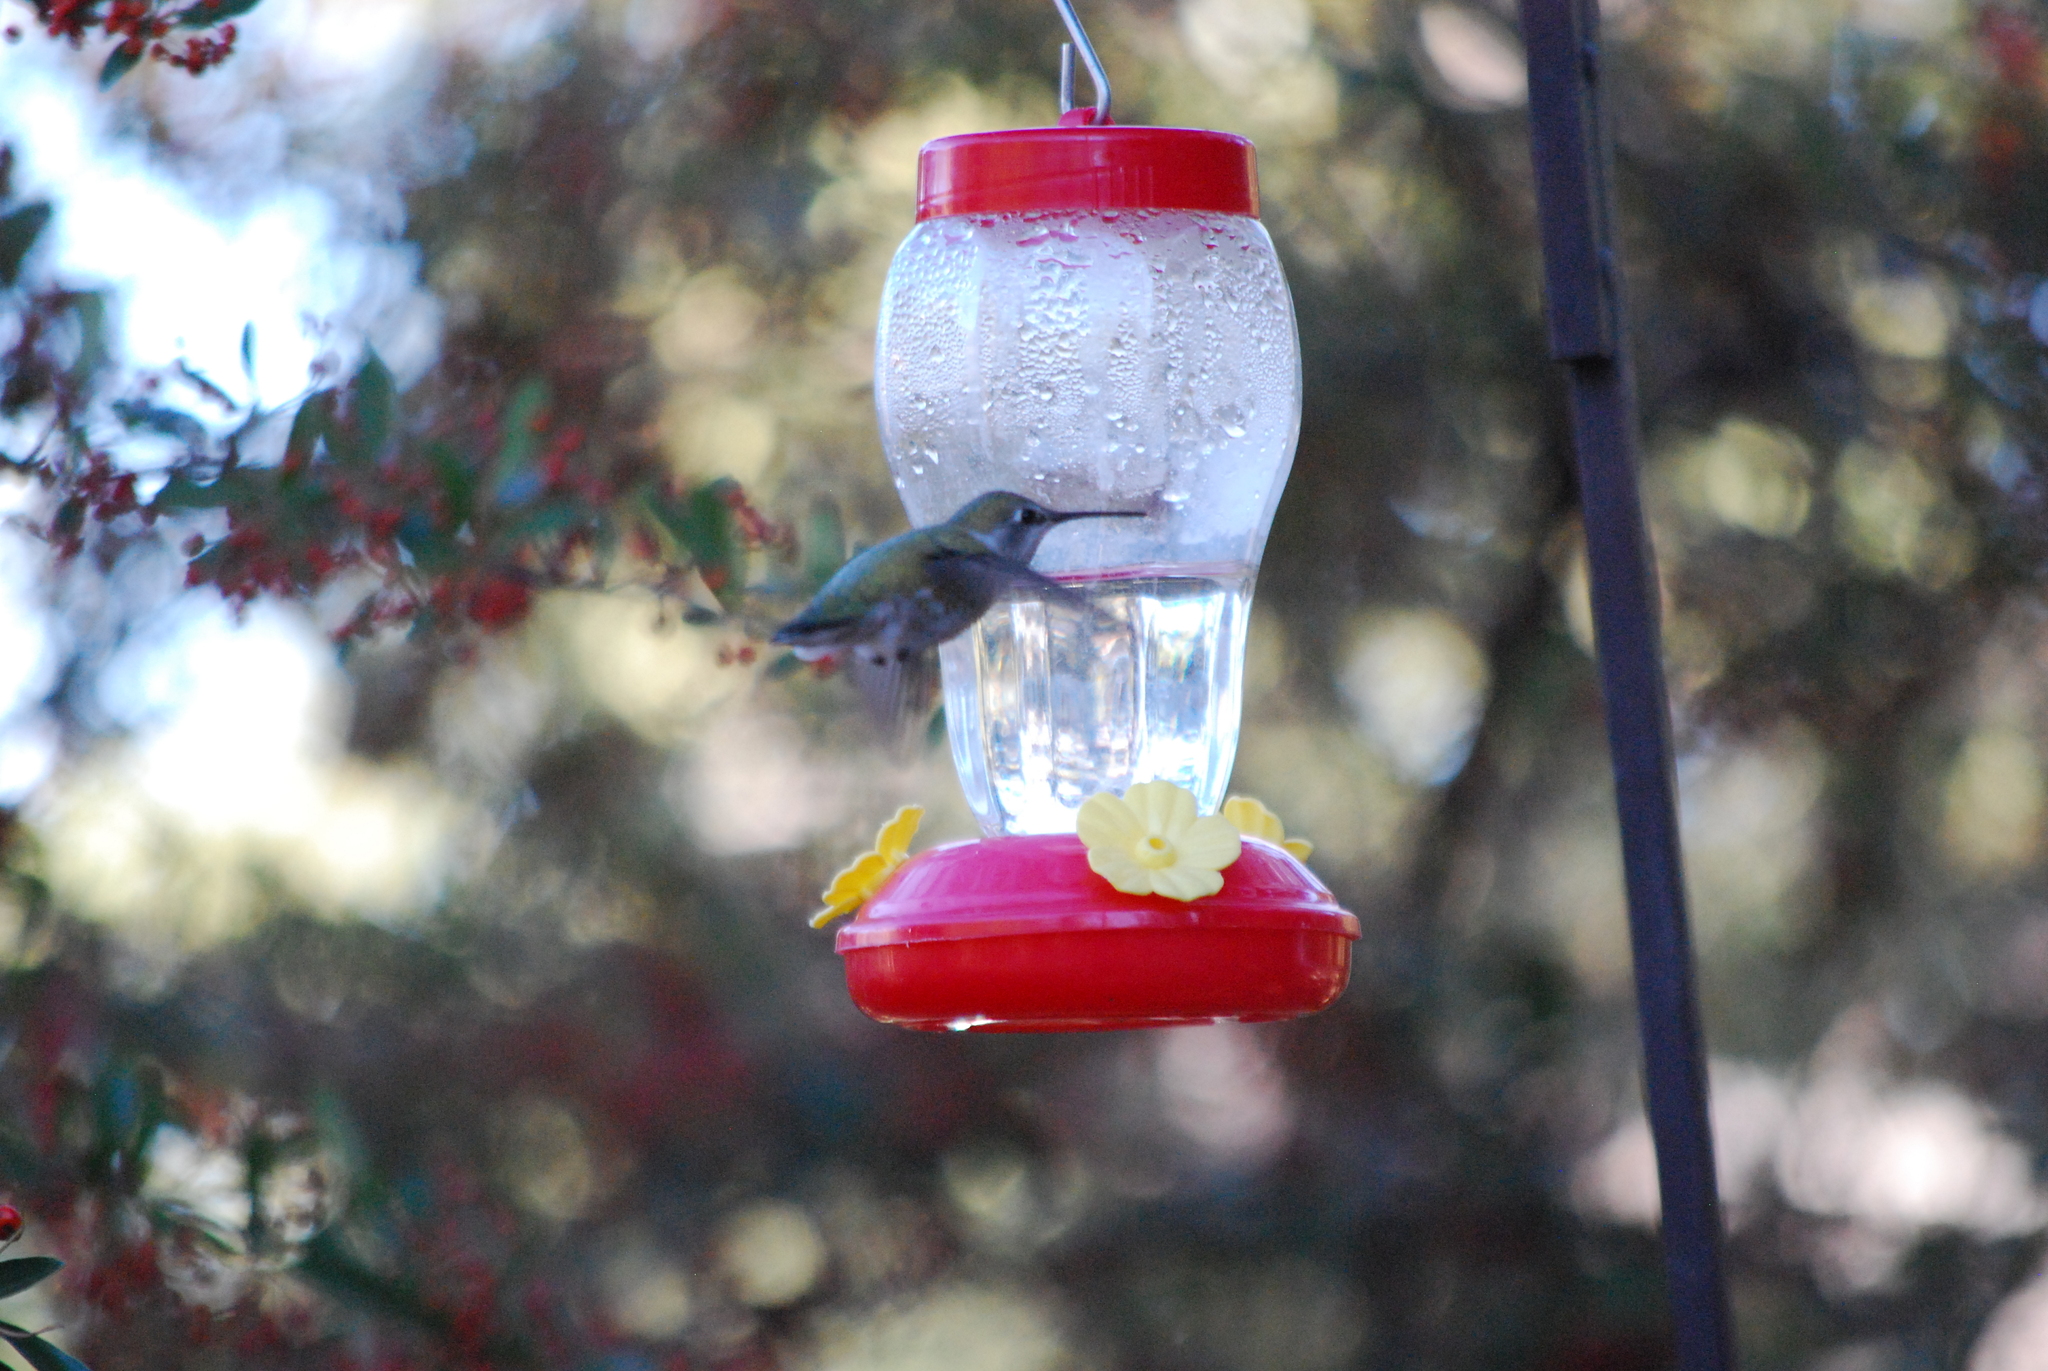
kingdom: Animalia
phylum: Chordata
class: Aves
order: Apodiformes
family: Trochilidae
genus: Calypte
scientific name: Calypte anna
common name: Anna's hummingbird
